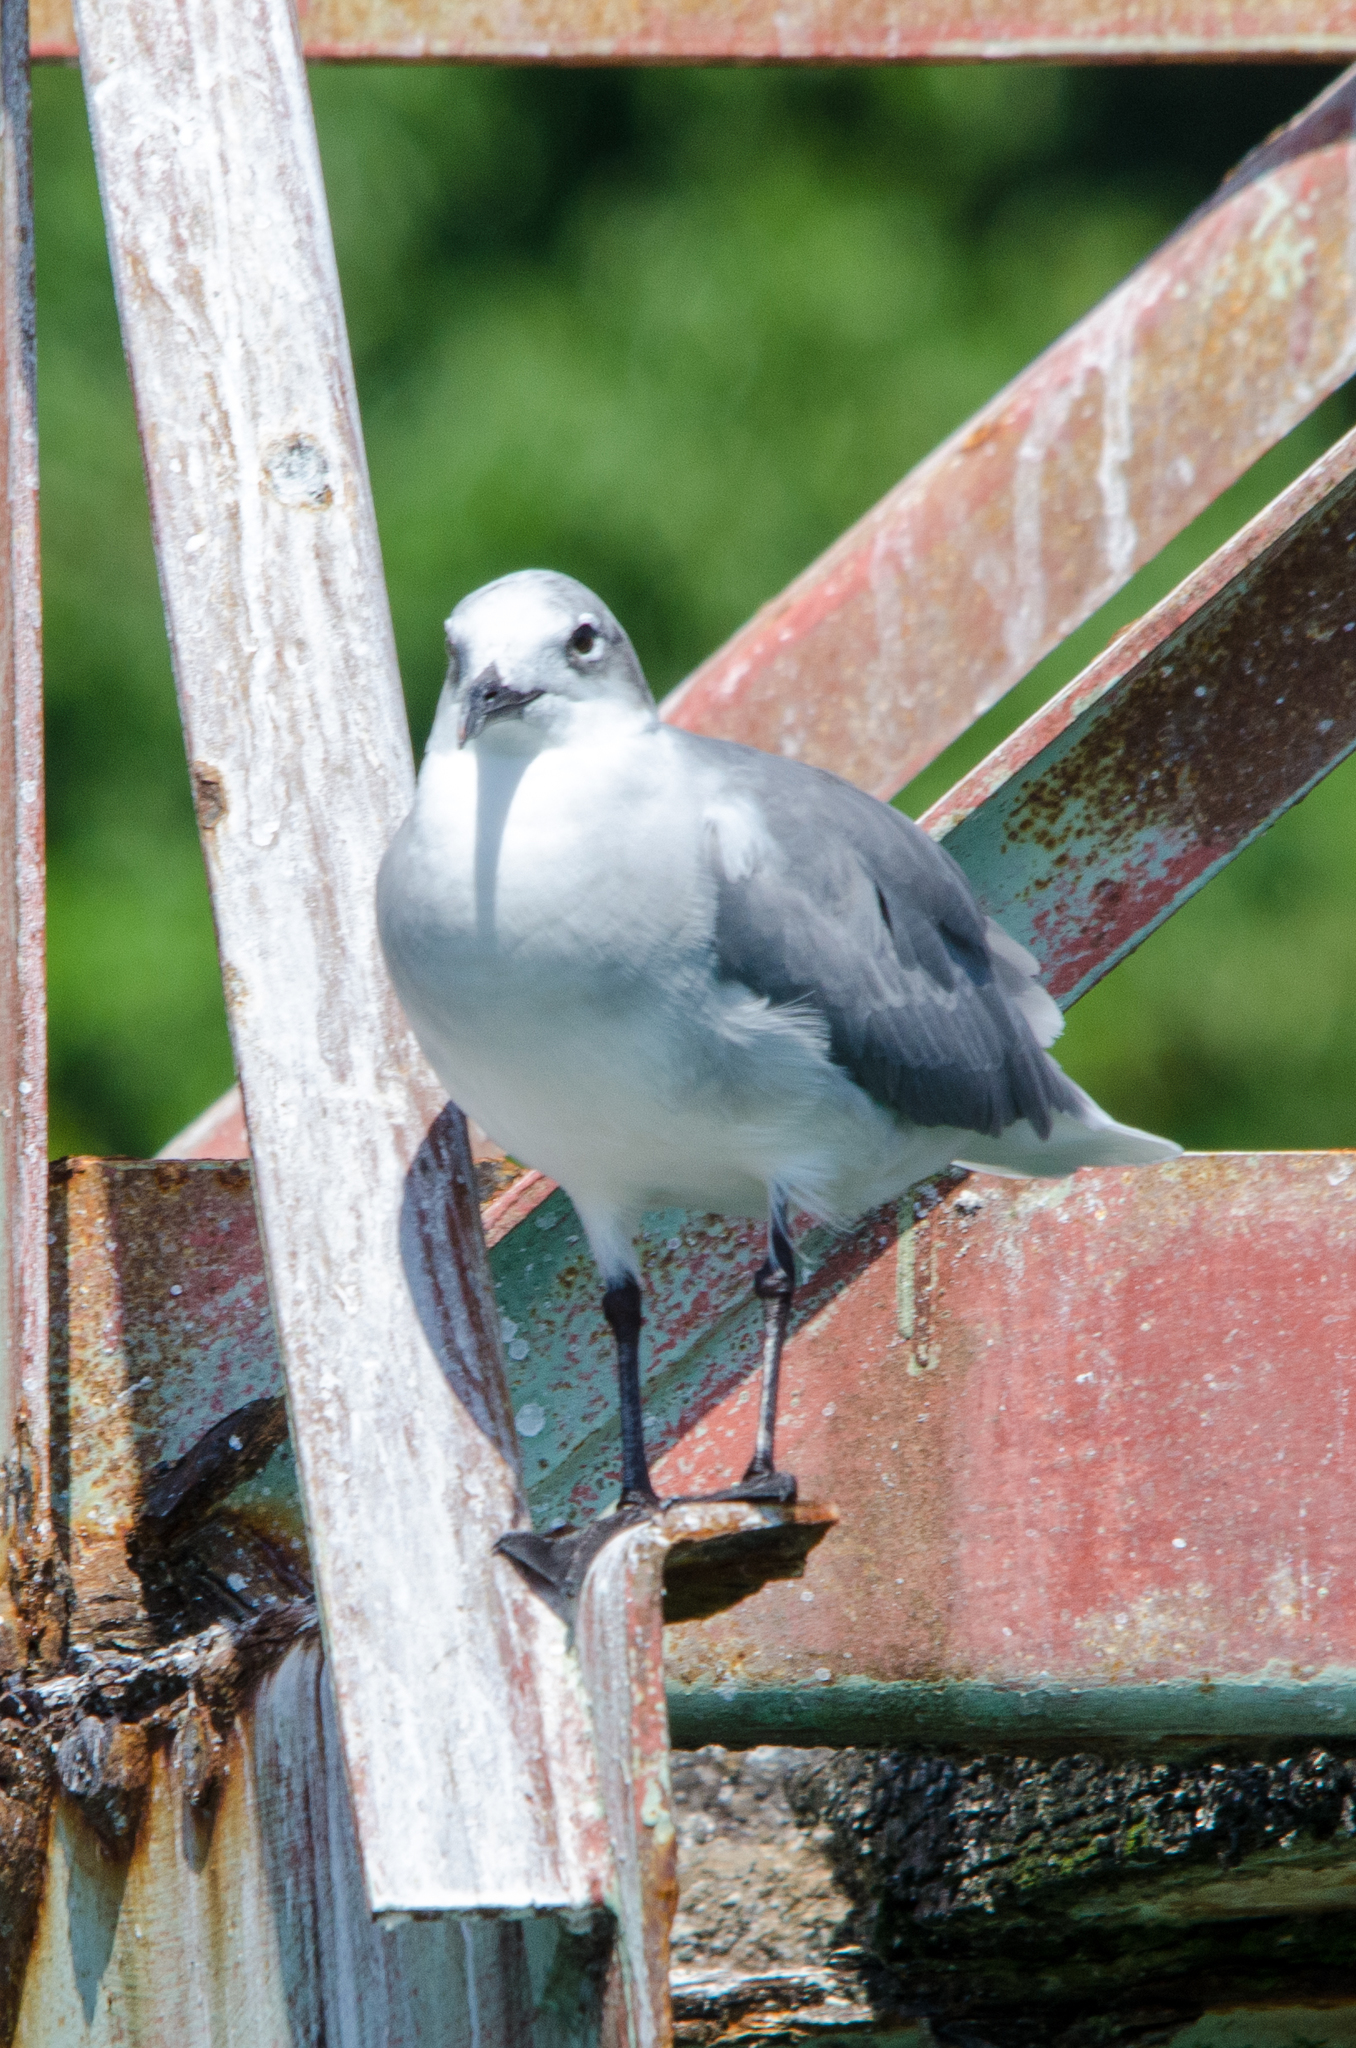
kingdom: Animalia
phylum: Chordata
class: Aves
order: Charadriiformes
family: Laridae
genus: Leucophaeus
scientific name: Leucophaeus atricilla
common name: Laughing gull
